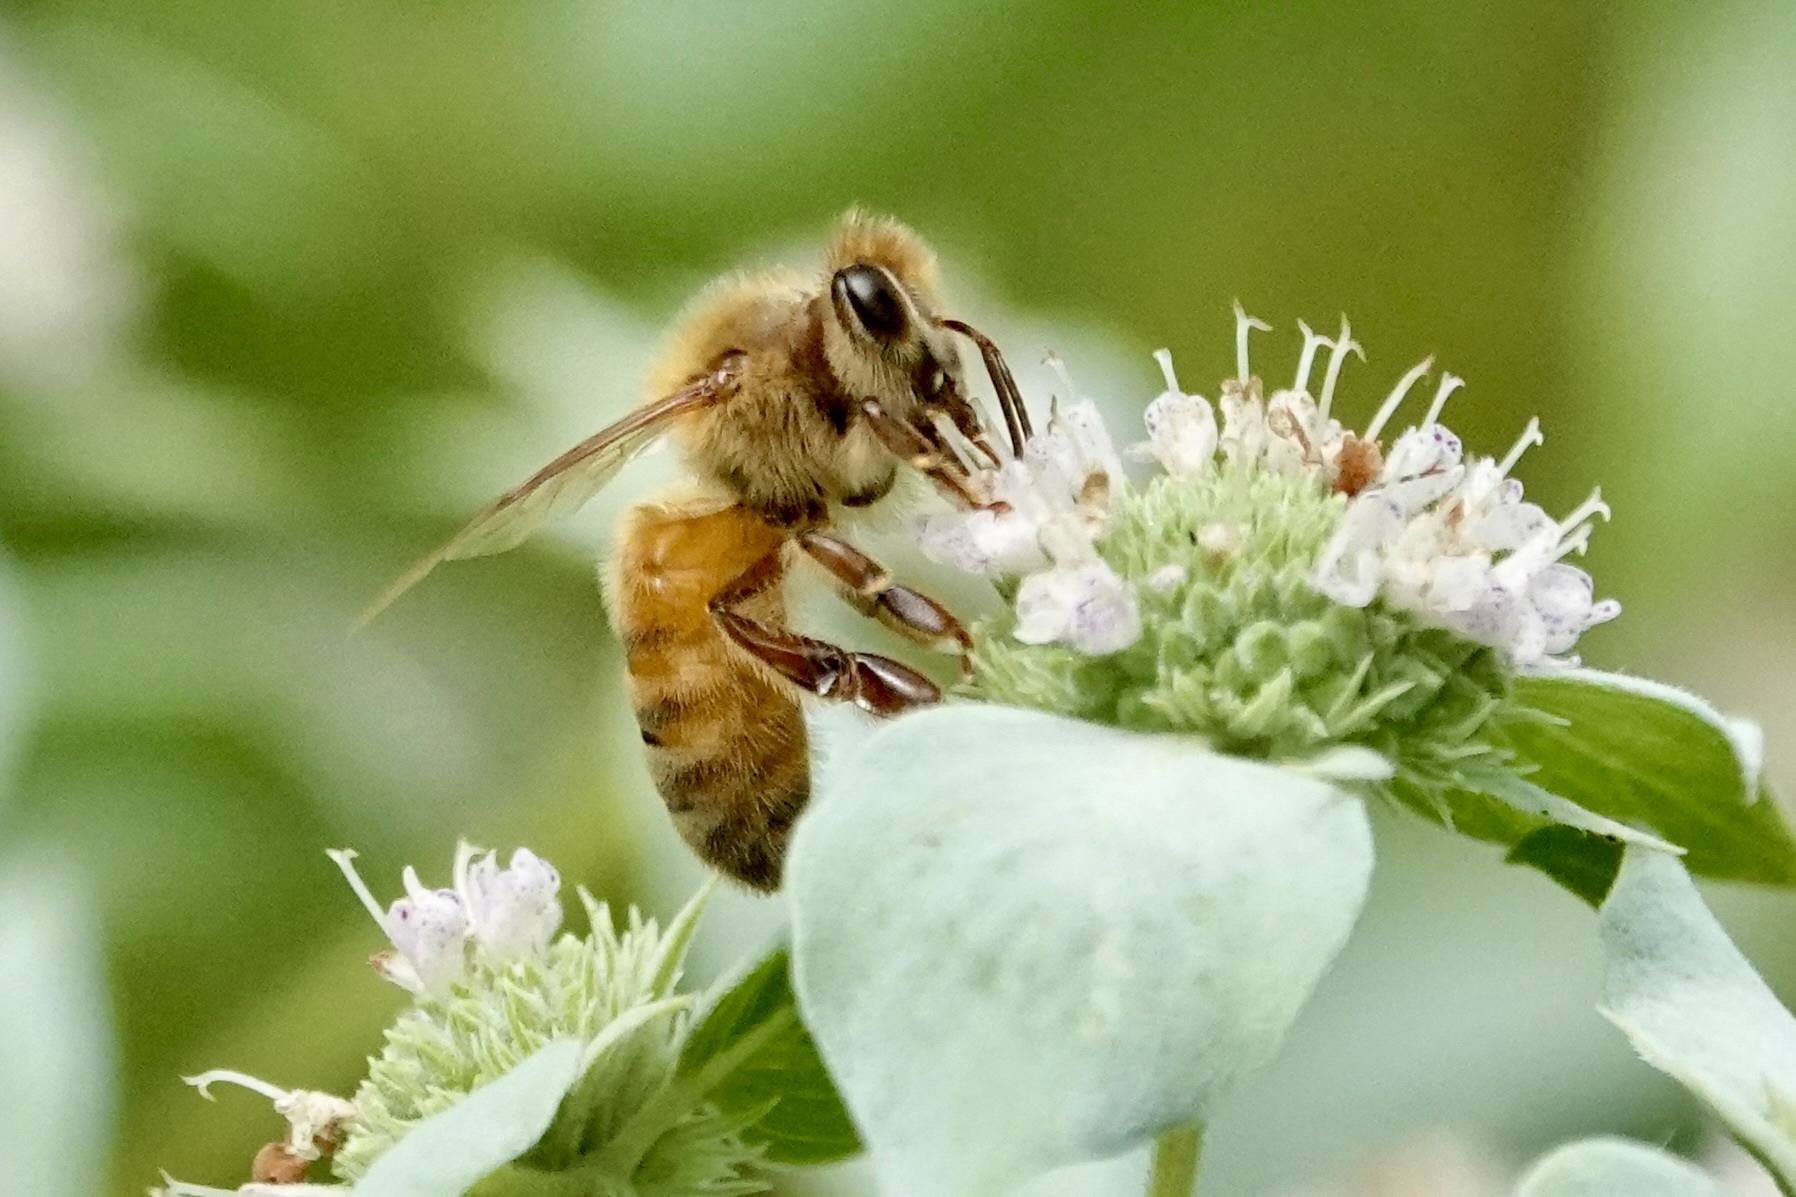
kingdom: Animalia
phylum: Arthropoda
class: Insecta
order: Hymenoptera
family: Apidae
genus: Apis
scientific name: Apis mellifera
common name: Honey bee
